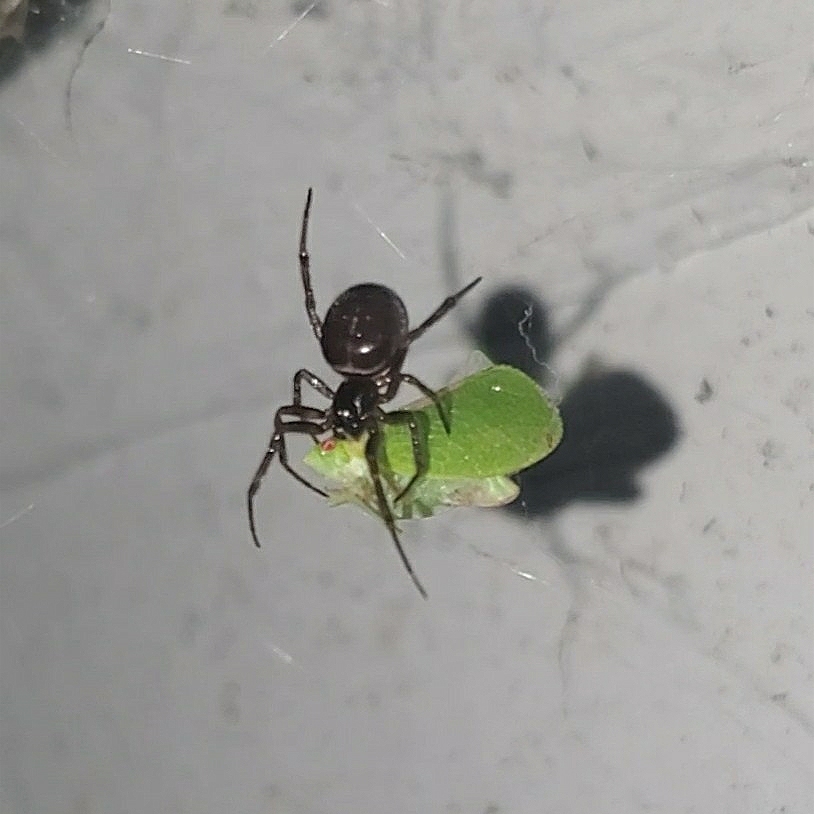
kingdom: Animalia
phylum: Arthropoda
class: Arachnida
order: Araneae
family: Theridiidae
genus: Steatoda
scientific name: Steatoda borealis
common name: Boreal combfoot
